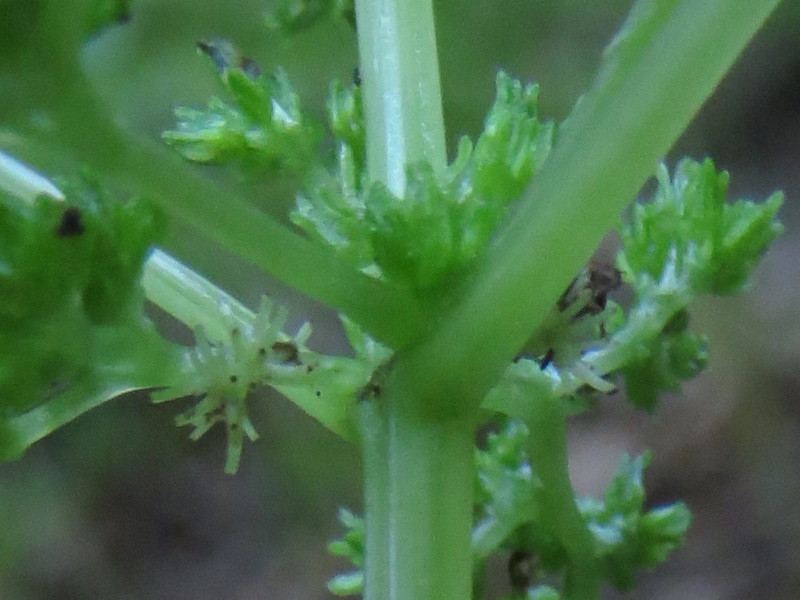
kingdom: Plantae
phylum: Tracheophyta
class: Magnoliopsida
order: Rosales
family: Urticaceae
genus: Pilea
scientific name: Pilea pumila
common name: Clearweed
